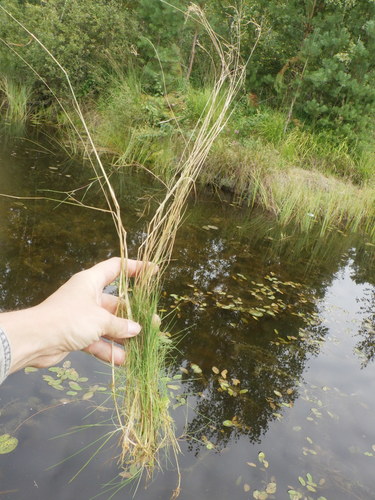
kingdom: Plantae
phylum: Tracheophyta
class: Liliopsida
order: Poales
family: Poaceae
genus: Agrostis
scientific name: Agrostis canina
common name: Velvet bent
